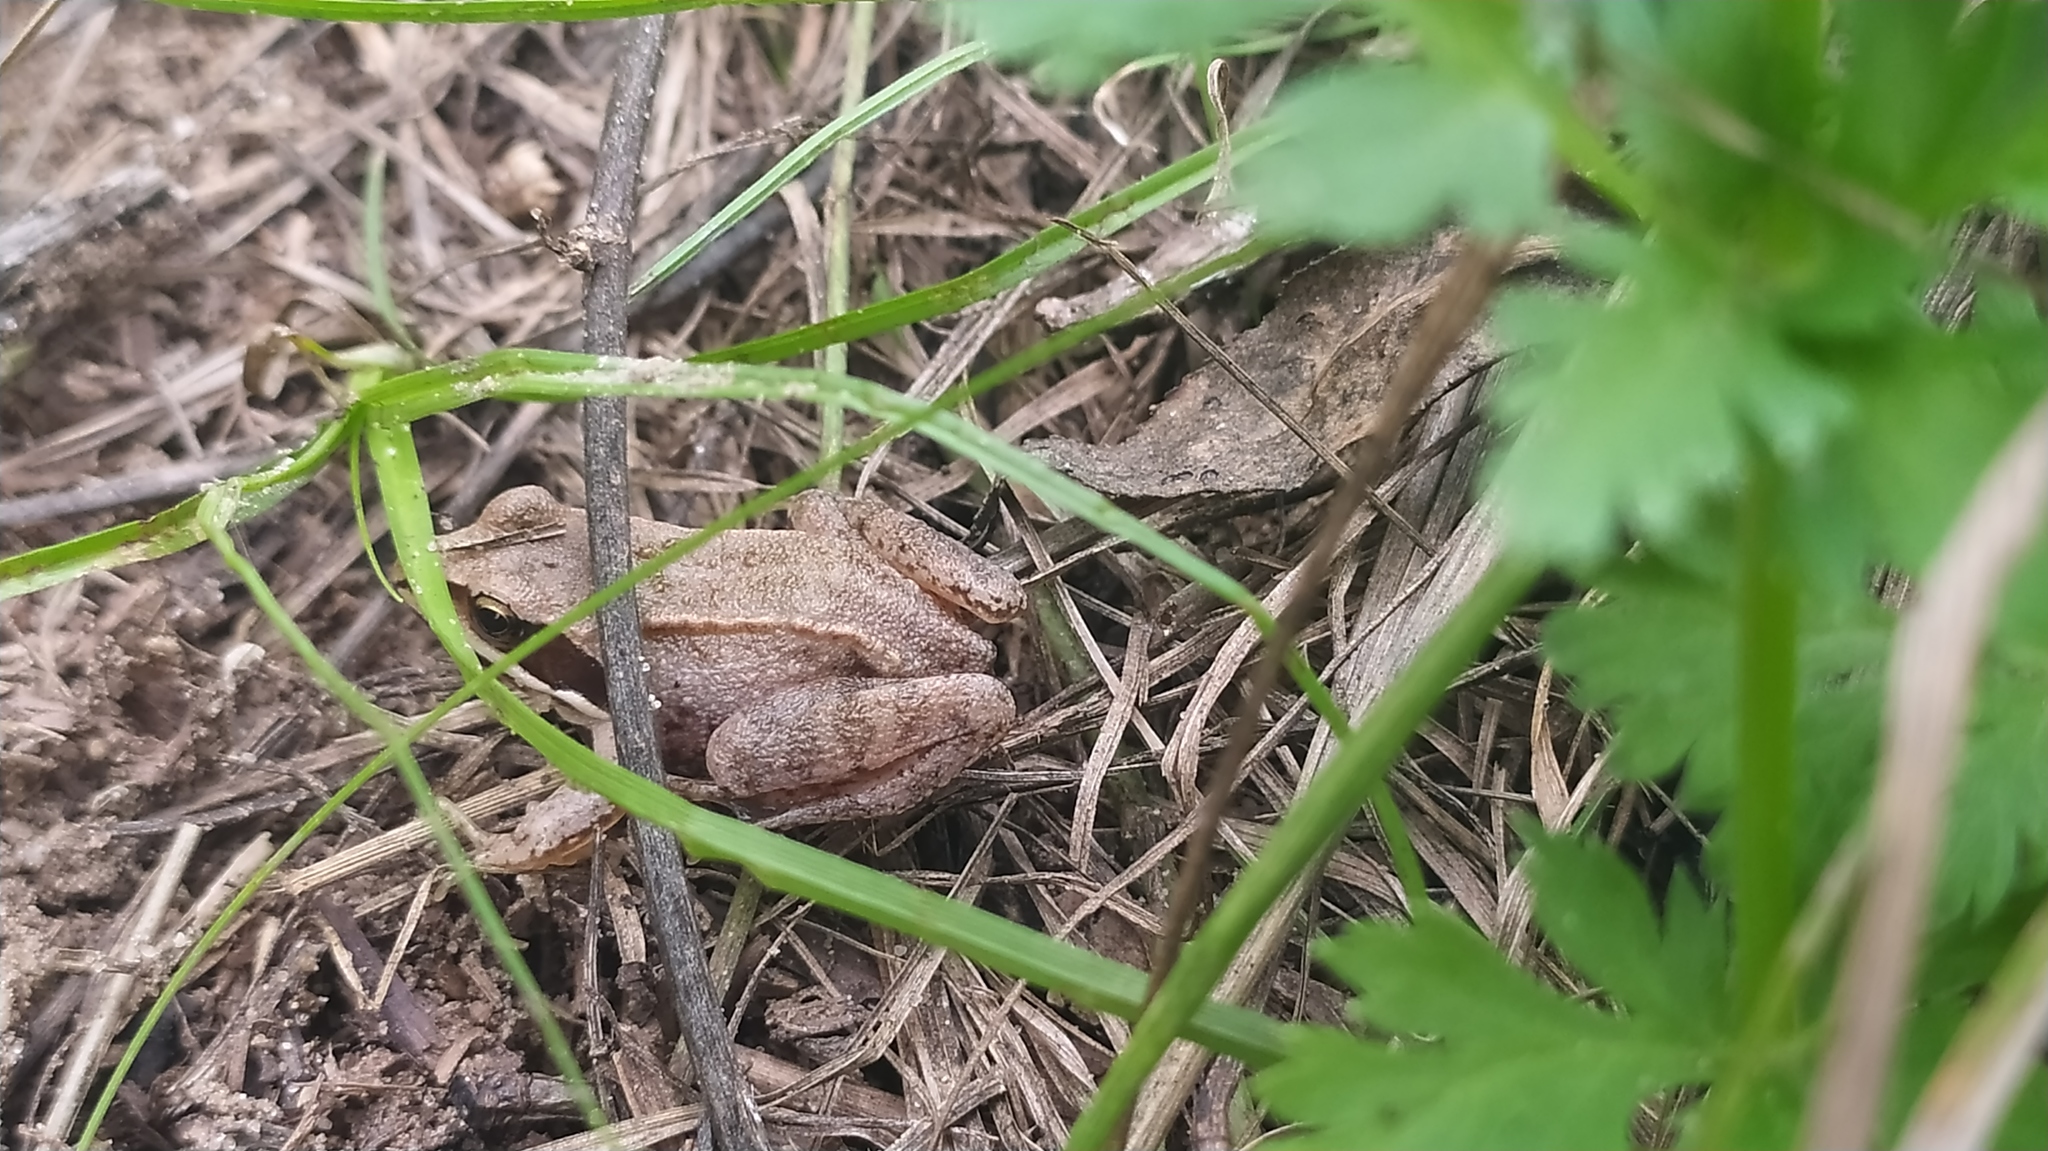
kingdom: Animalia
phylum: Chordata
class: Amphibia
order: Anura
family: Ranidae
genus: Rana
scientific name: Rana arvalis
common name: Moor frog
